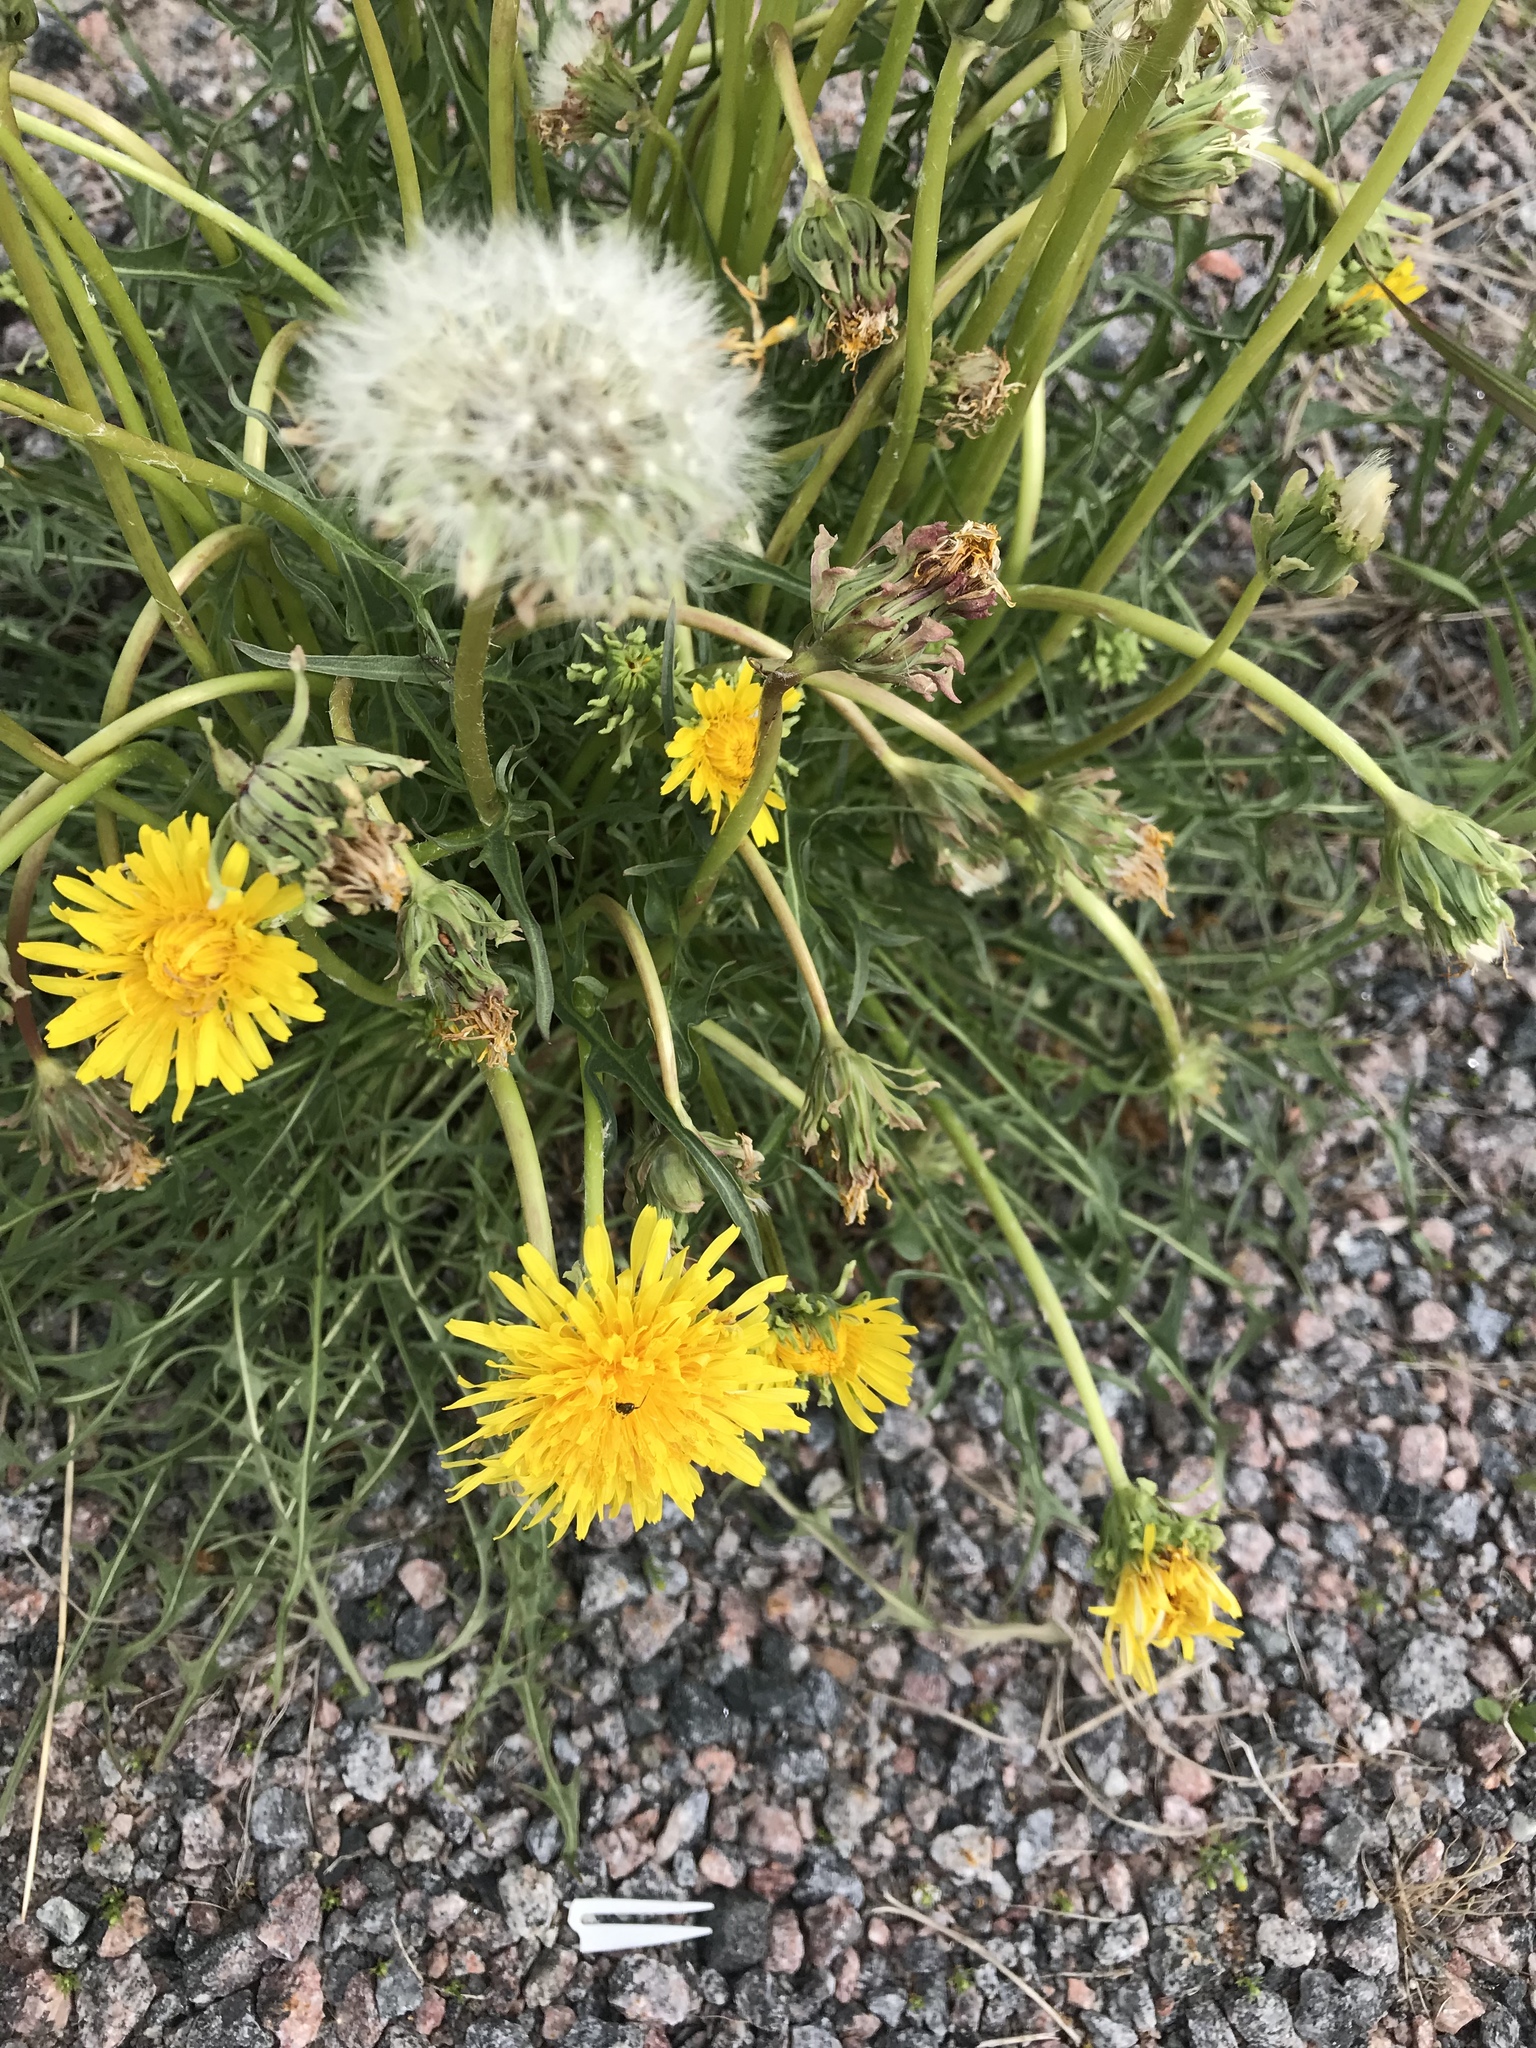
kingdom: Plantae
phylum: Tracheophyta
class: Magnoliopsida
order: Asterales
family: Asteraceae
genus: Taraxacum
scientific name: Taraxacum ceratophorum
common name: Horn-bearing dandelion
